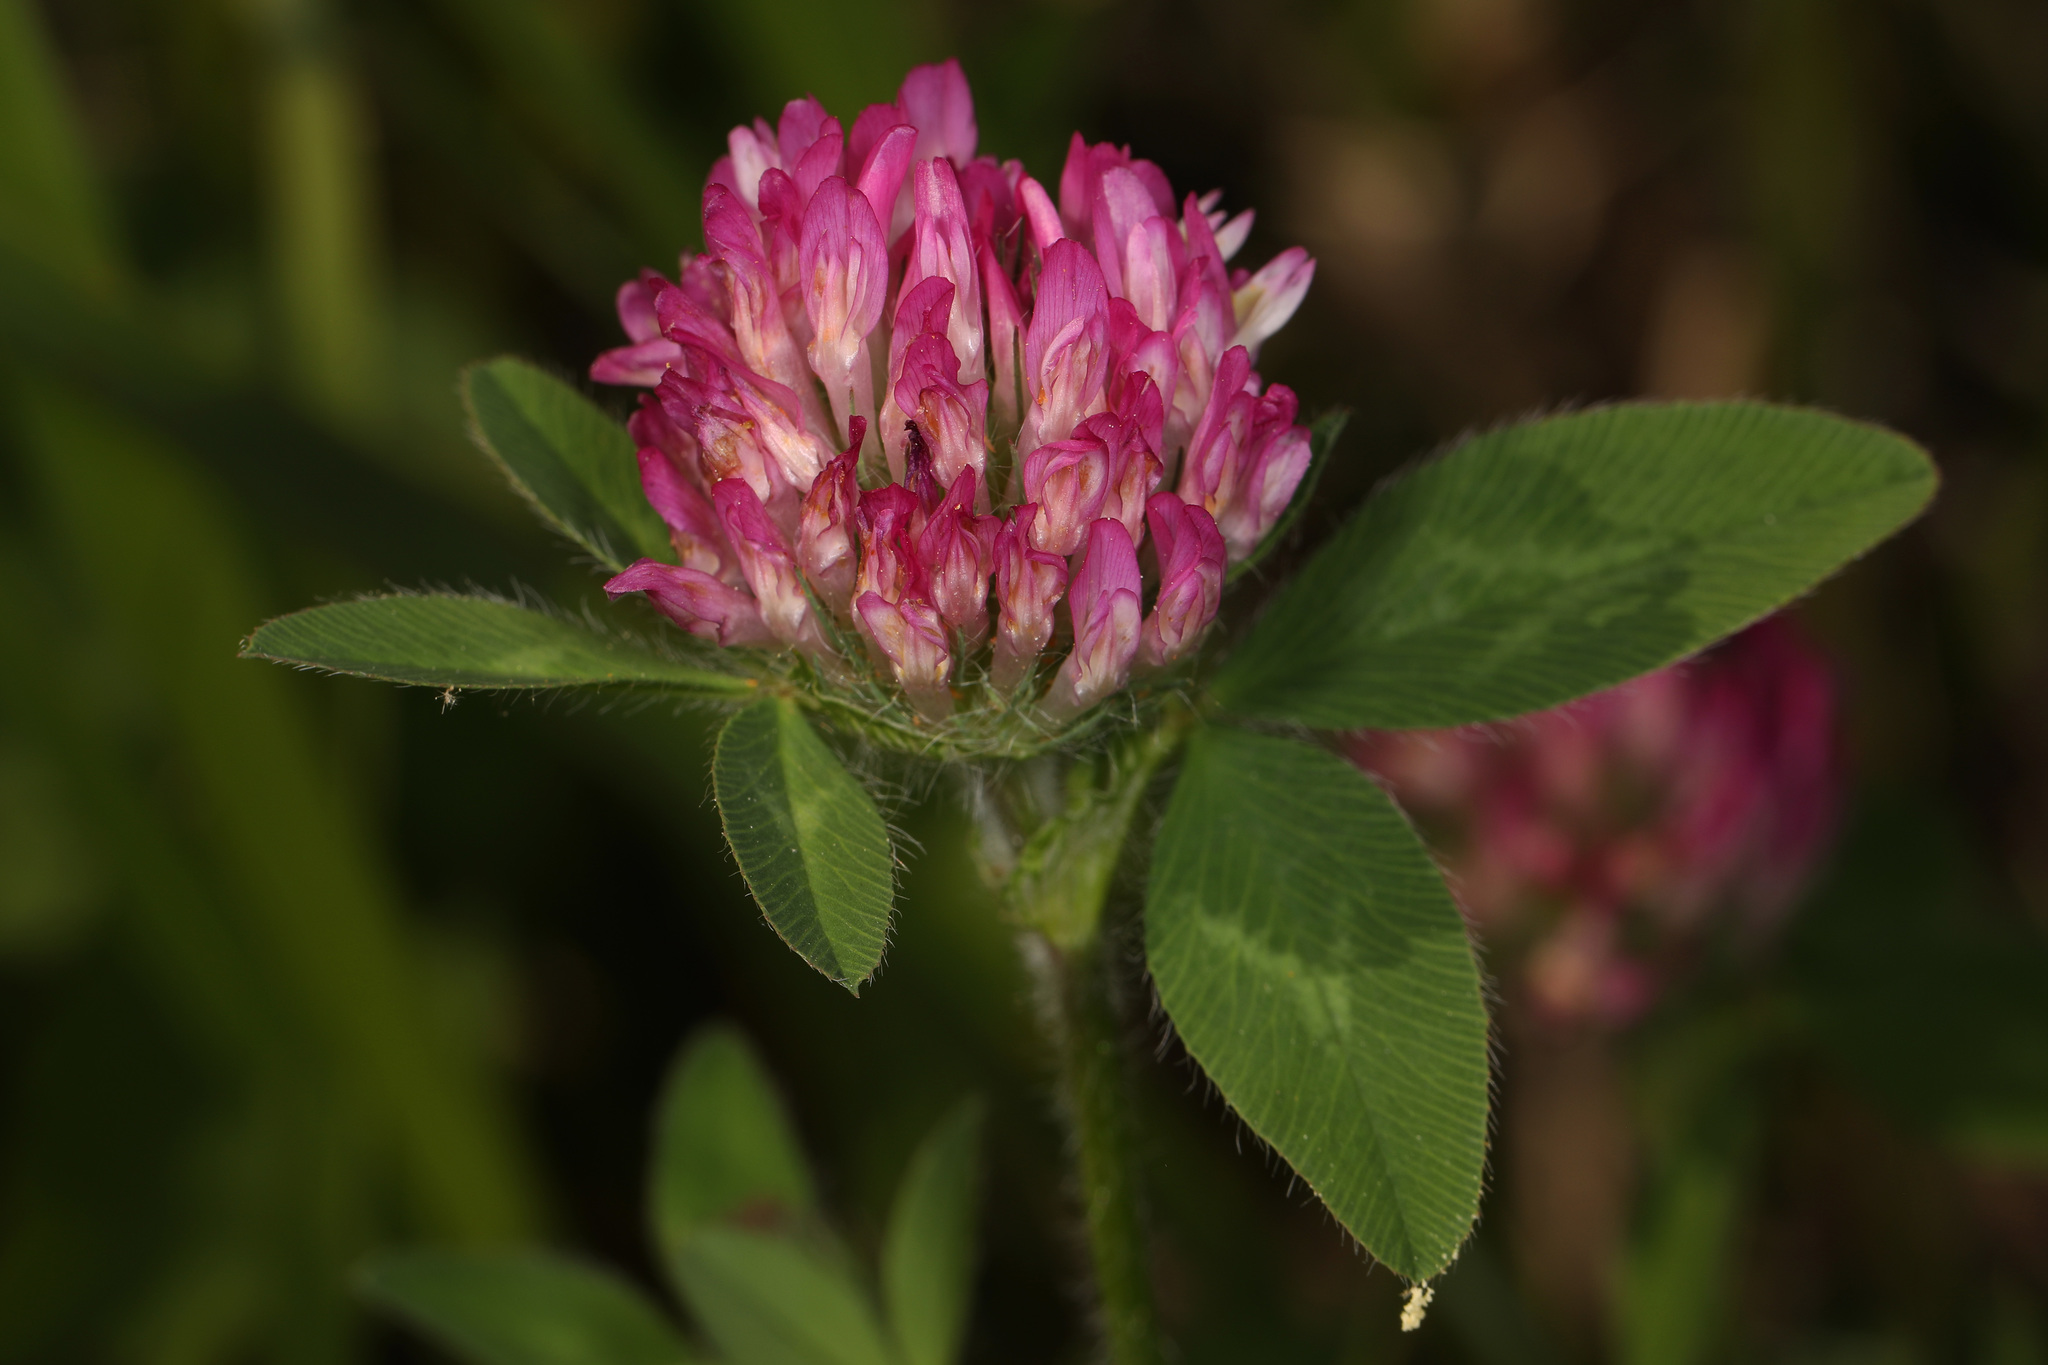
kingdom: Plantae
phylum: Tracheophyta
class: Magnoliopsida
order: Fabales
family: Fabaceae
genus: Trifolium
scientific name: Trifolium pratense
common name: Red clover
